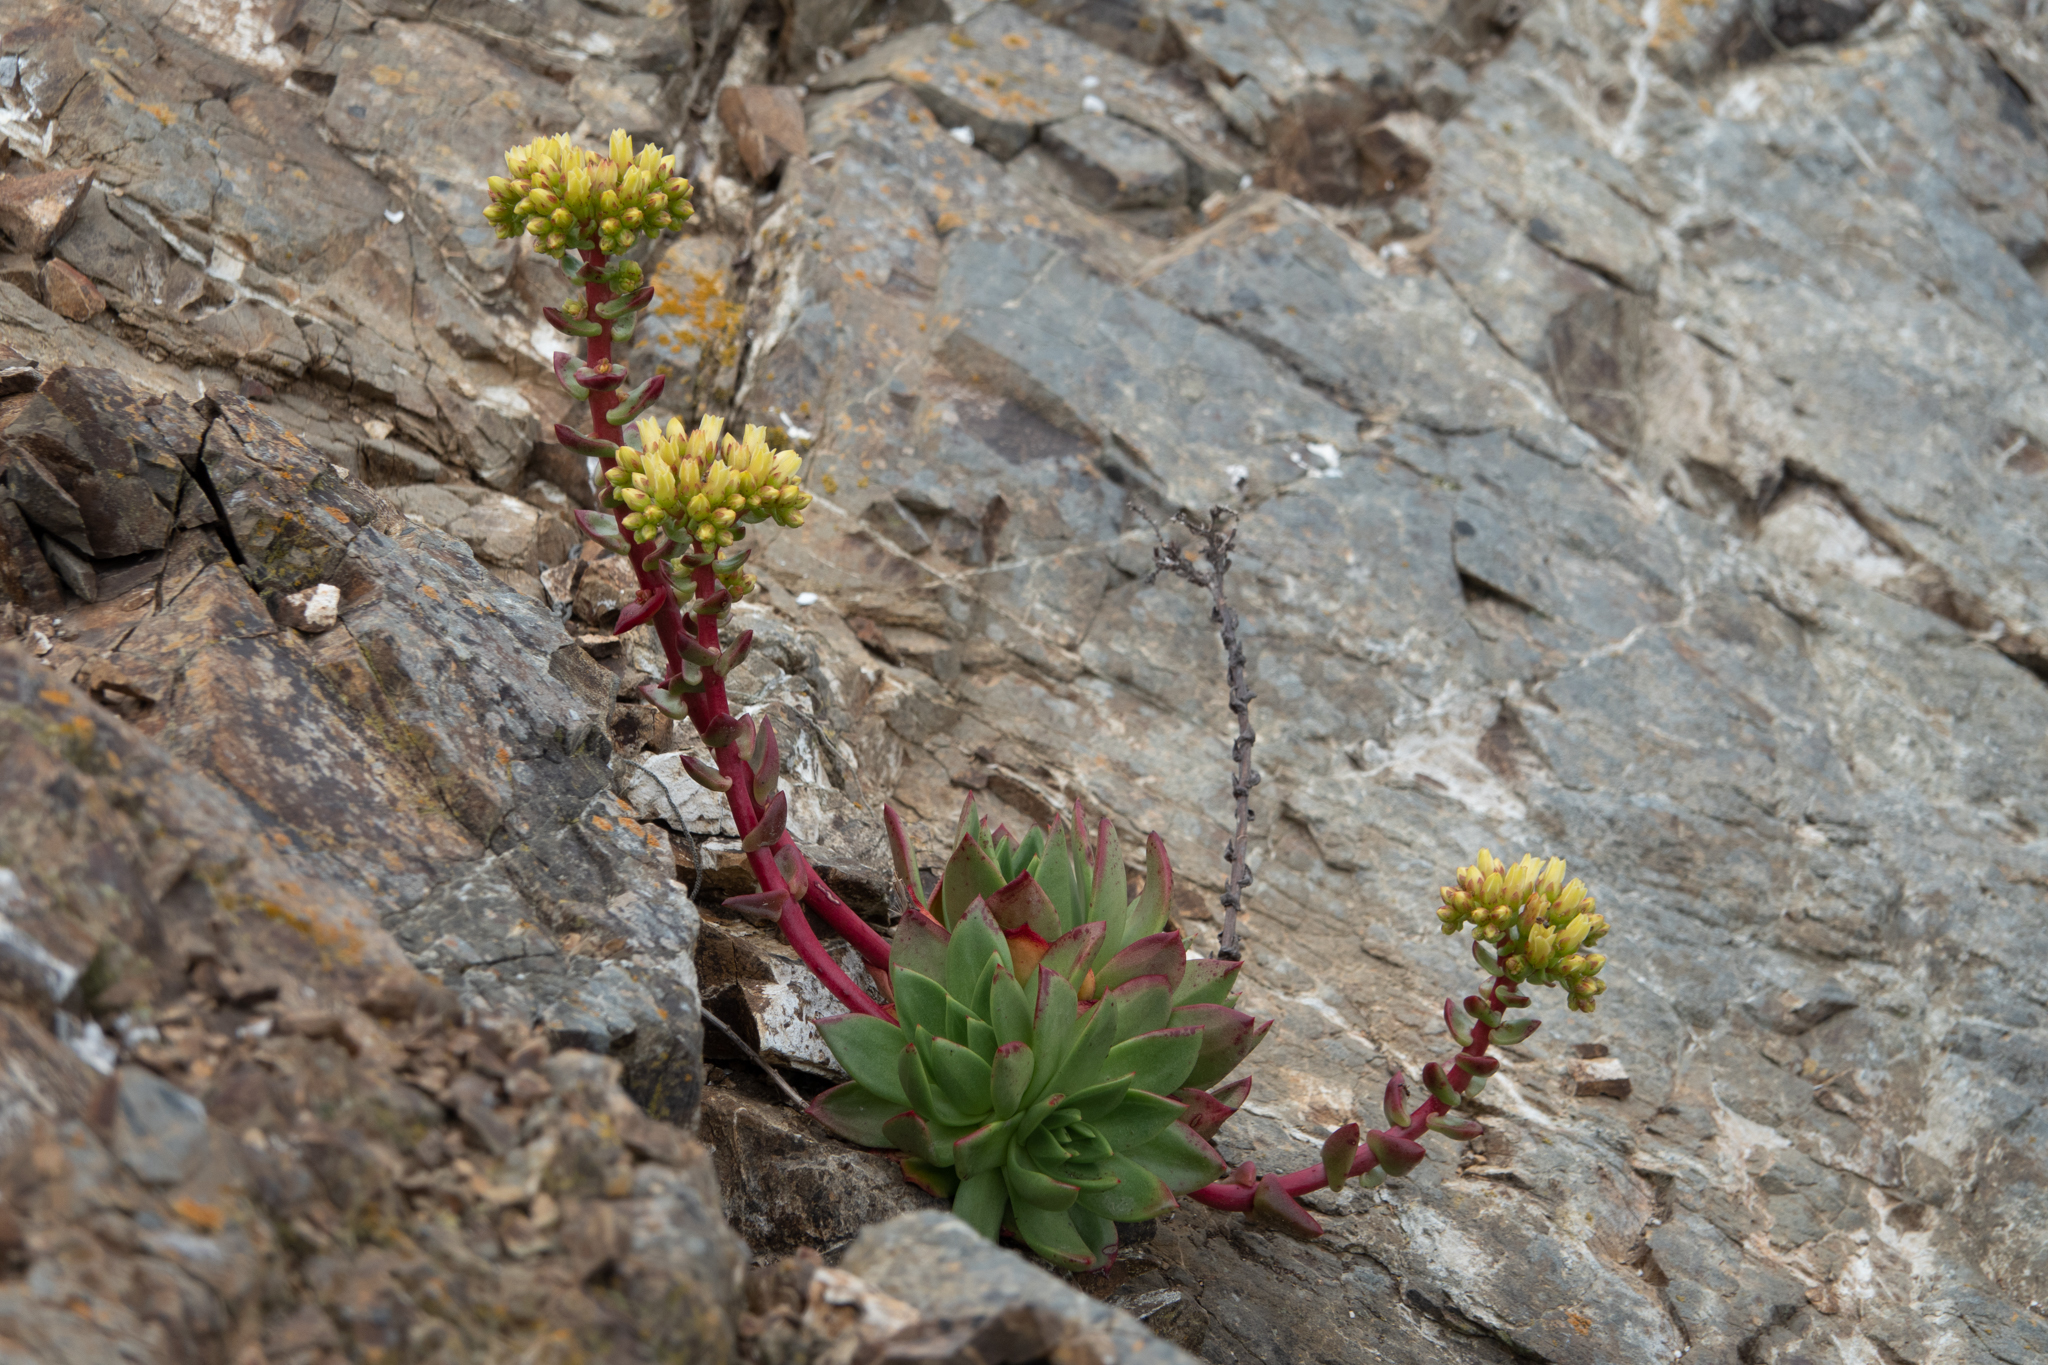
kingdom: Plantae
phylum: Tracheophyta
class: Magnoliopsida
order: Saxifragales
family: Crassulaceae
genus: Dudleya
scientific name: Dudleya farinosa
